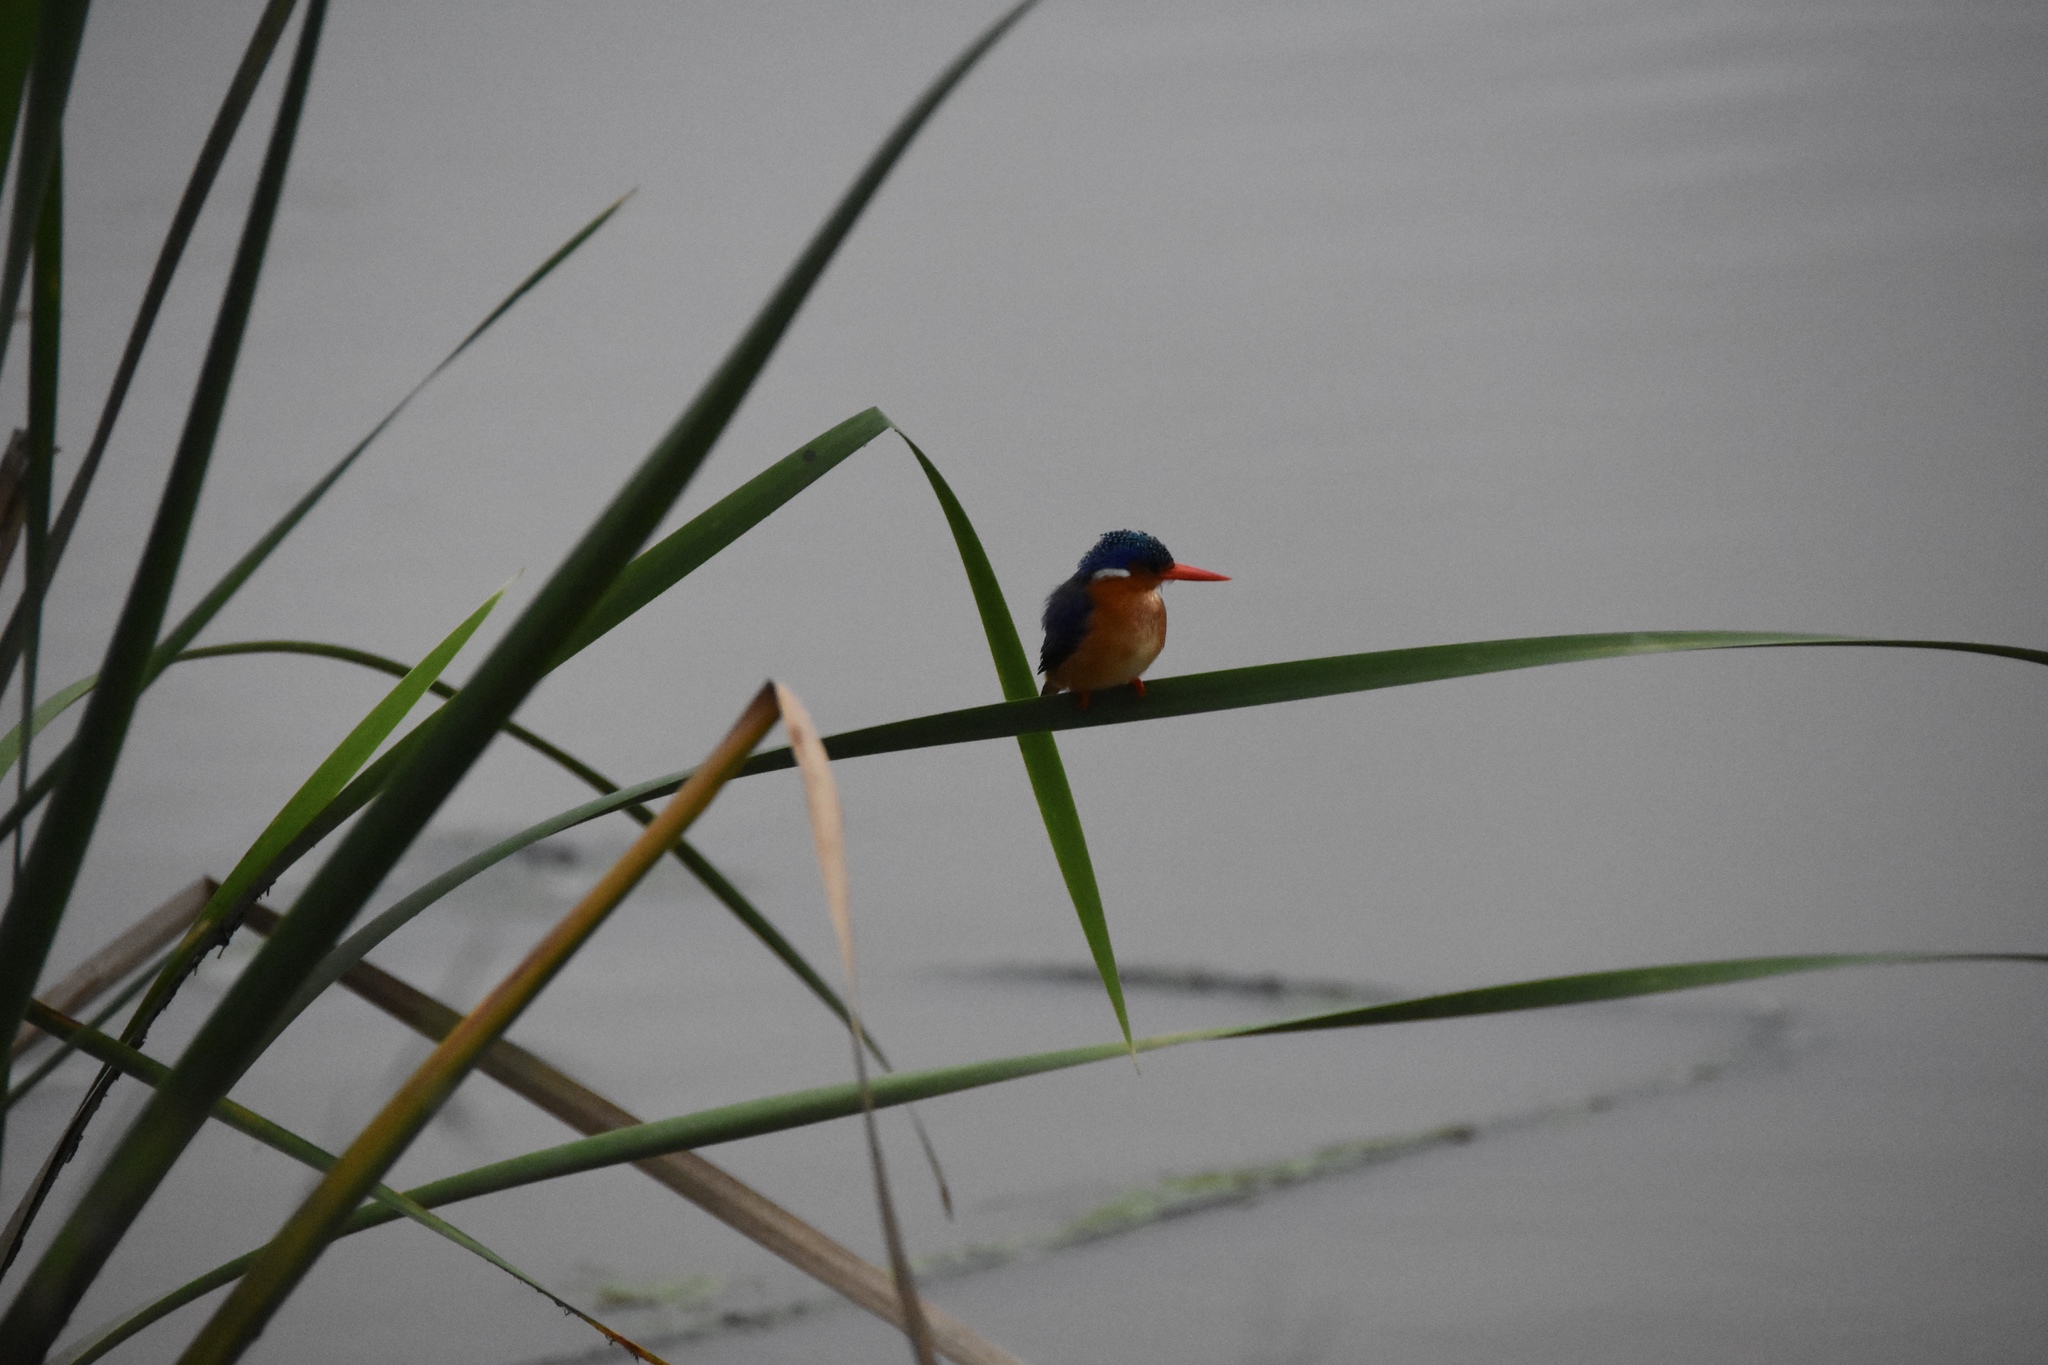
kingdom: Animalia
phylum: Chordata
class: Aves
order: Coraciiformes
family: Alcedinidae
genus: Corythornis
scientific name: Corythornis cristatus
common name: Malachite kingfisher
